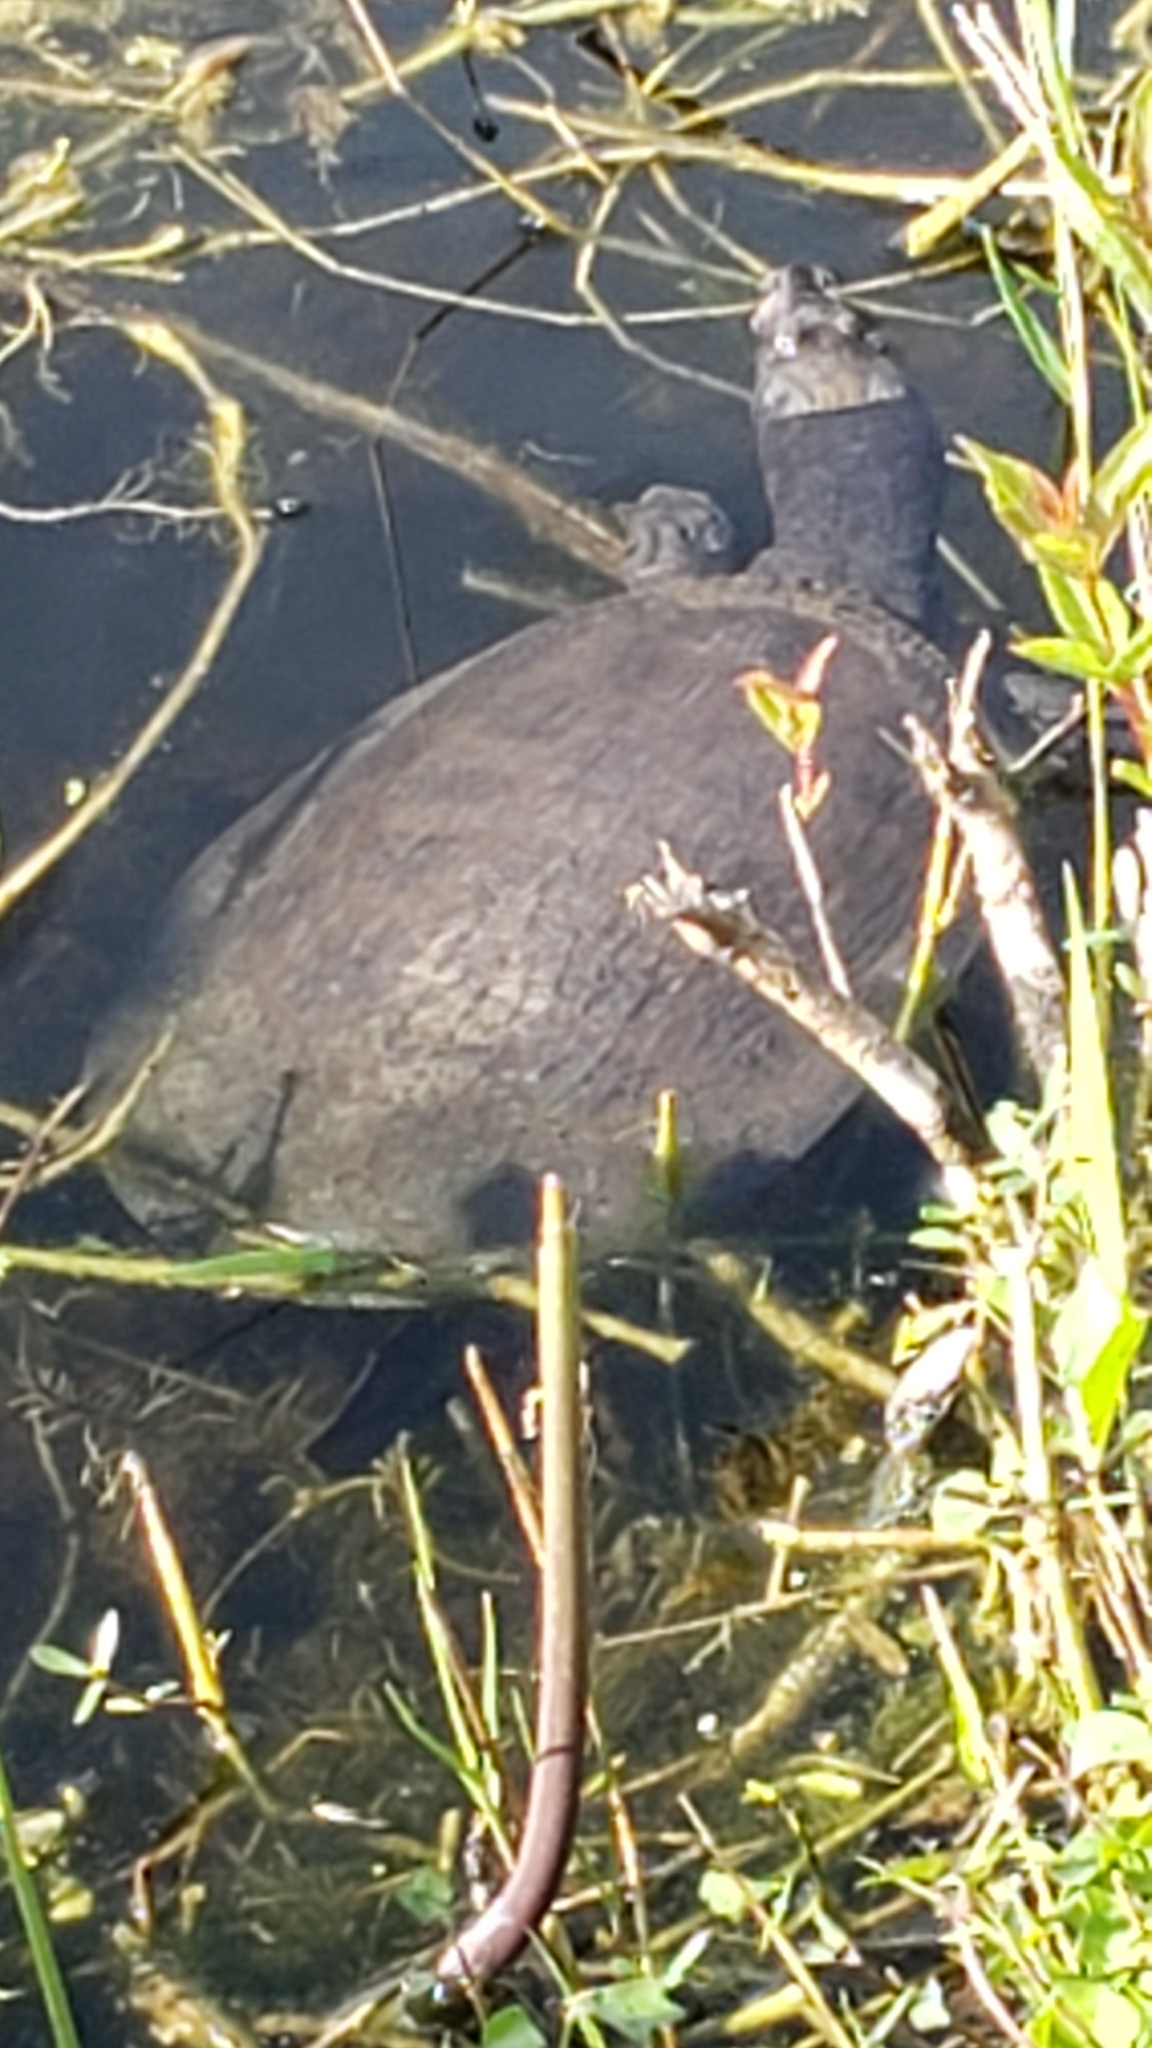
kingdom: Animalia
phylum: Chordata
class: Testudines
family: Trionychidae
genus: Apalone
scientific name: Apalone ferox
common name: Florida softshell turtle
